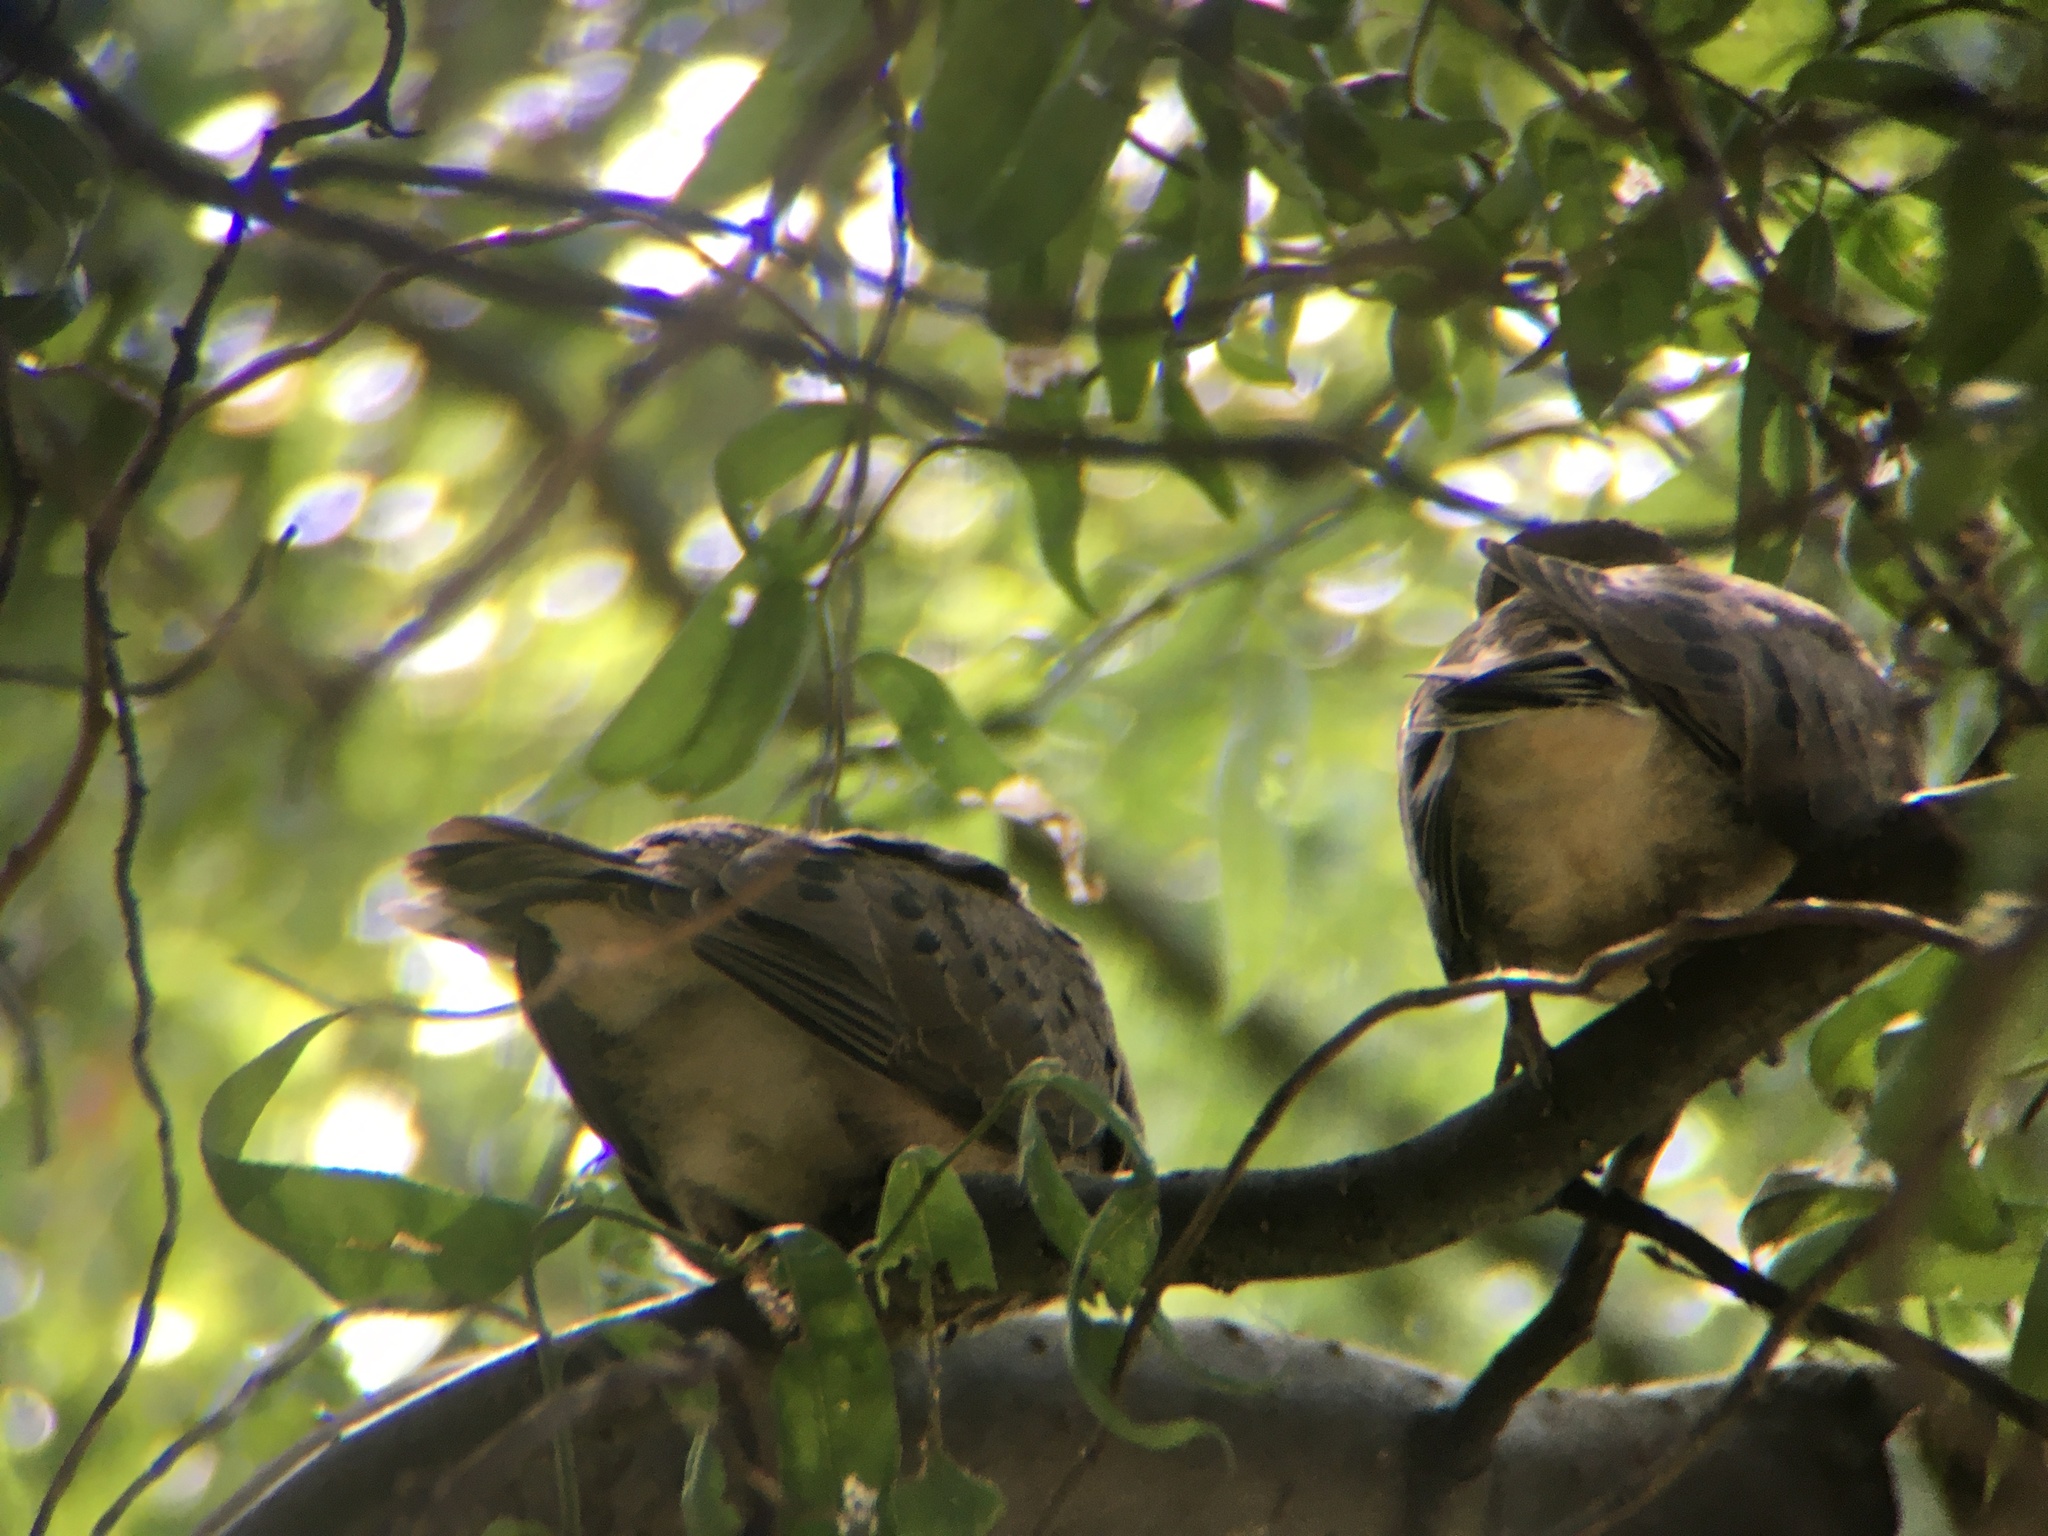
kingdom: Animalia
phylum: Chordata
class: Aves
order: Columbiformes
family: Columbidae
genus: Zenaida
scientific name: Zenaida macroura
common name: Mourning dove
